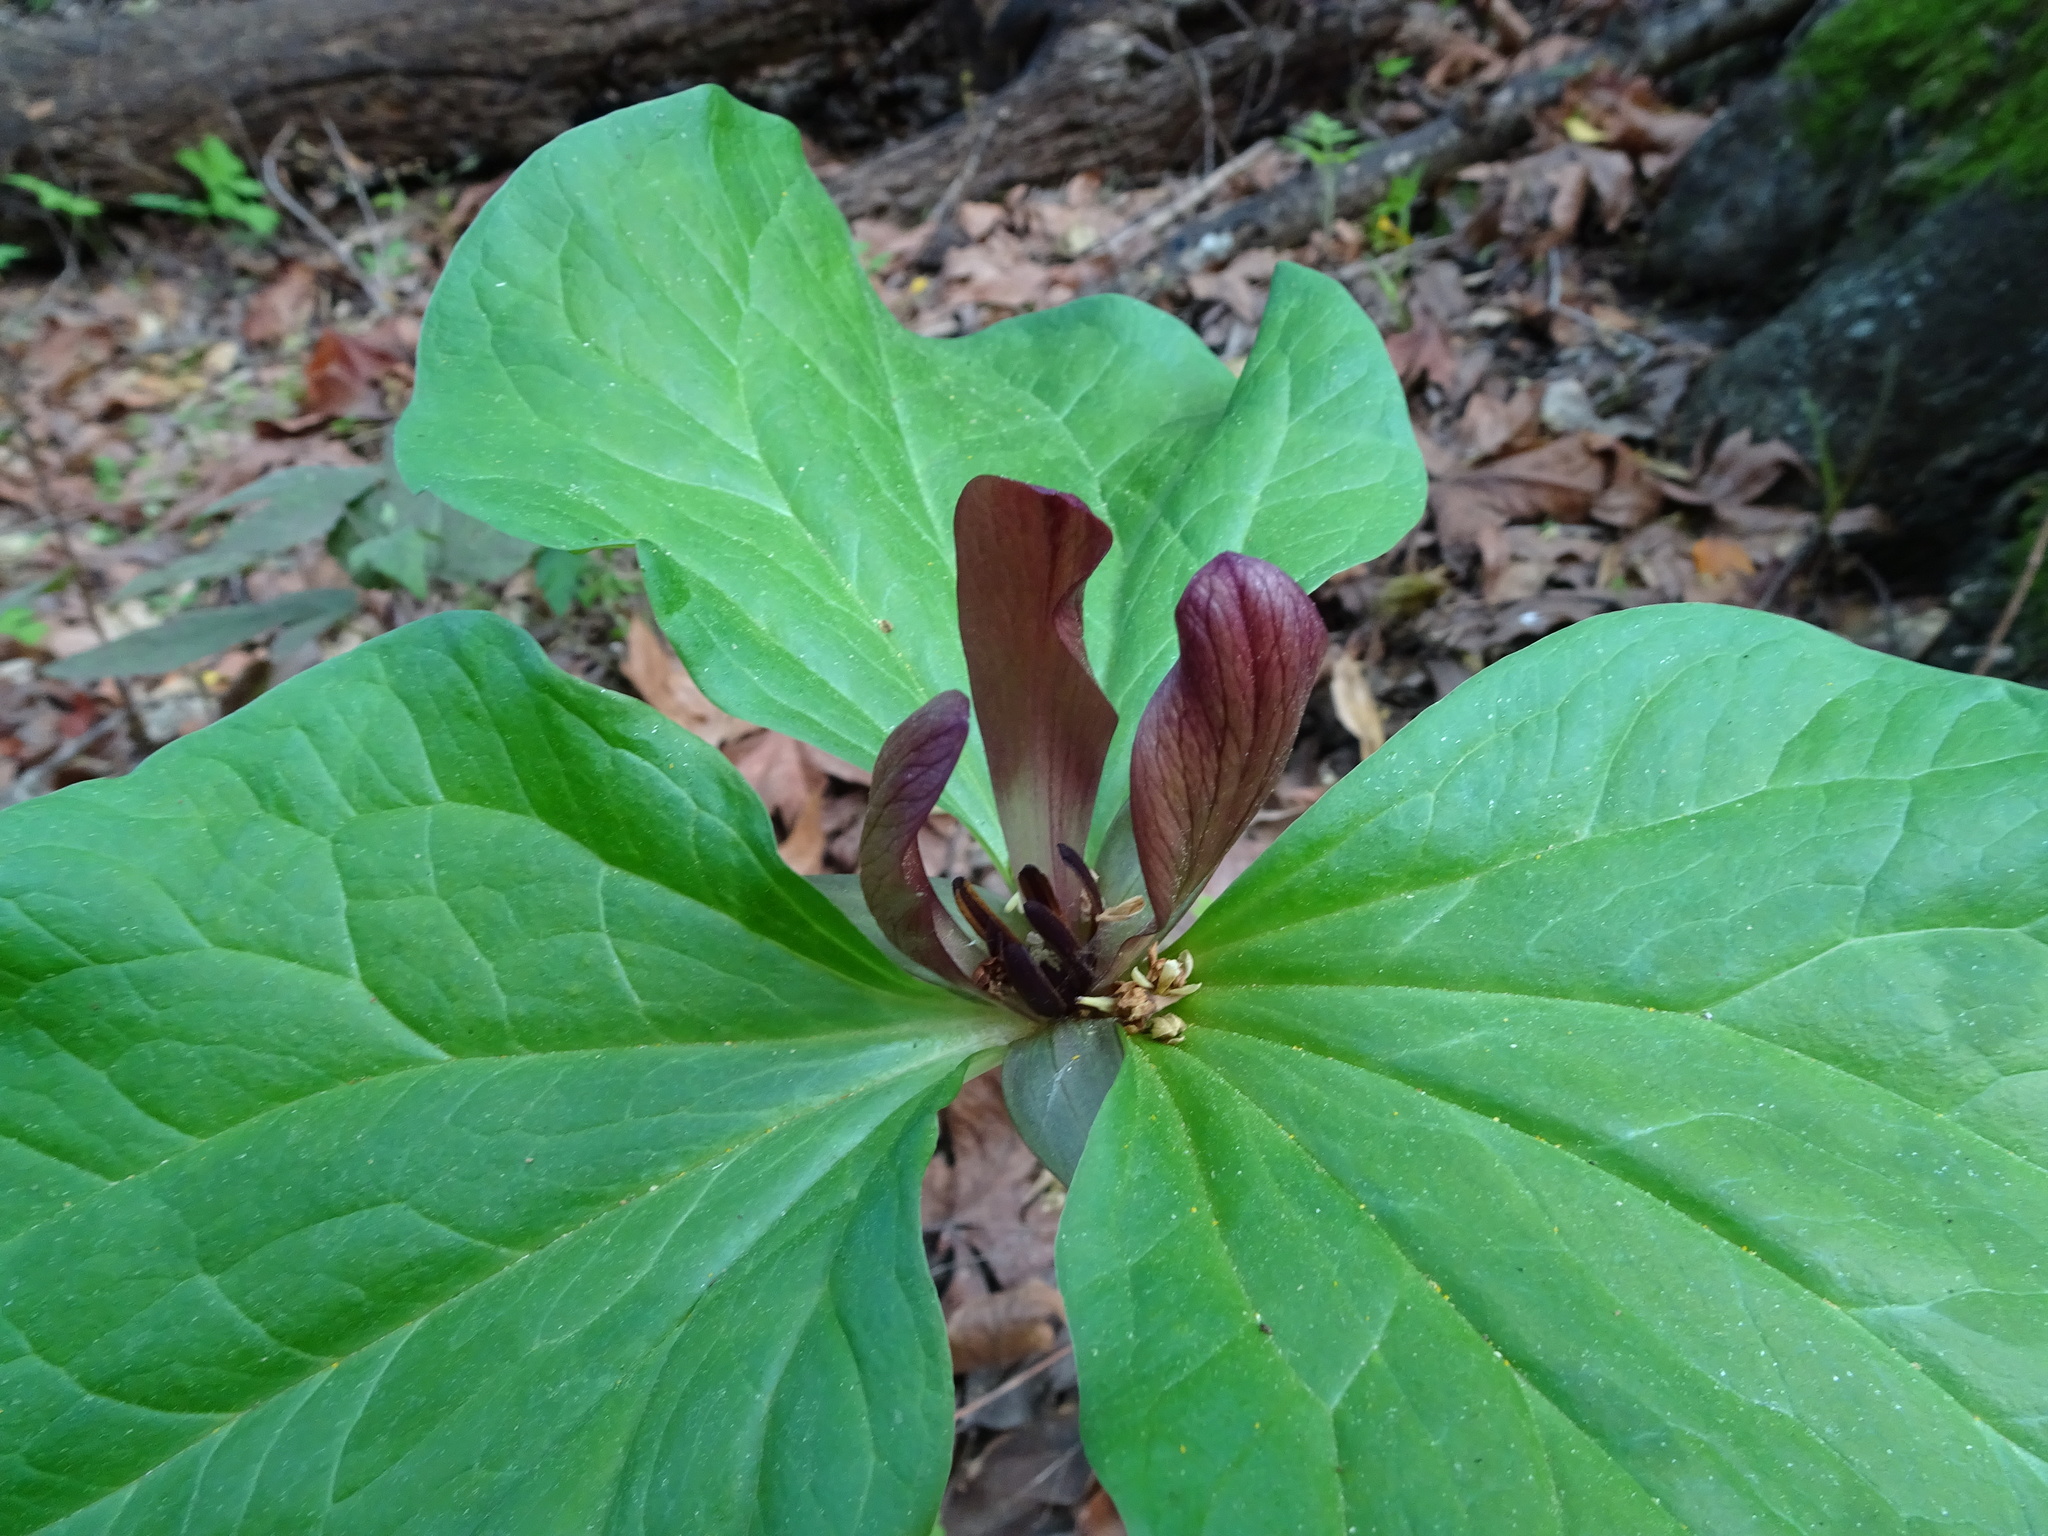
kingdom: Plantae
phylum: Tracheophyta
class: Liliopsida
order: Liliales
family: Melanthiaceae
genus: Trillium
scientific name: Trillium chloropetalum
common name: Giant trillium
